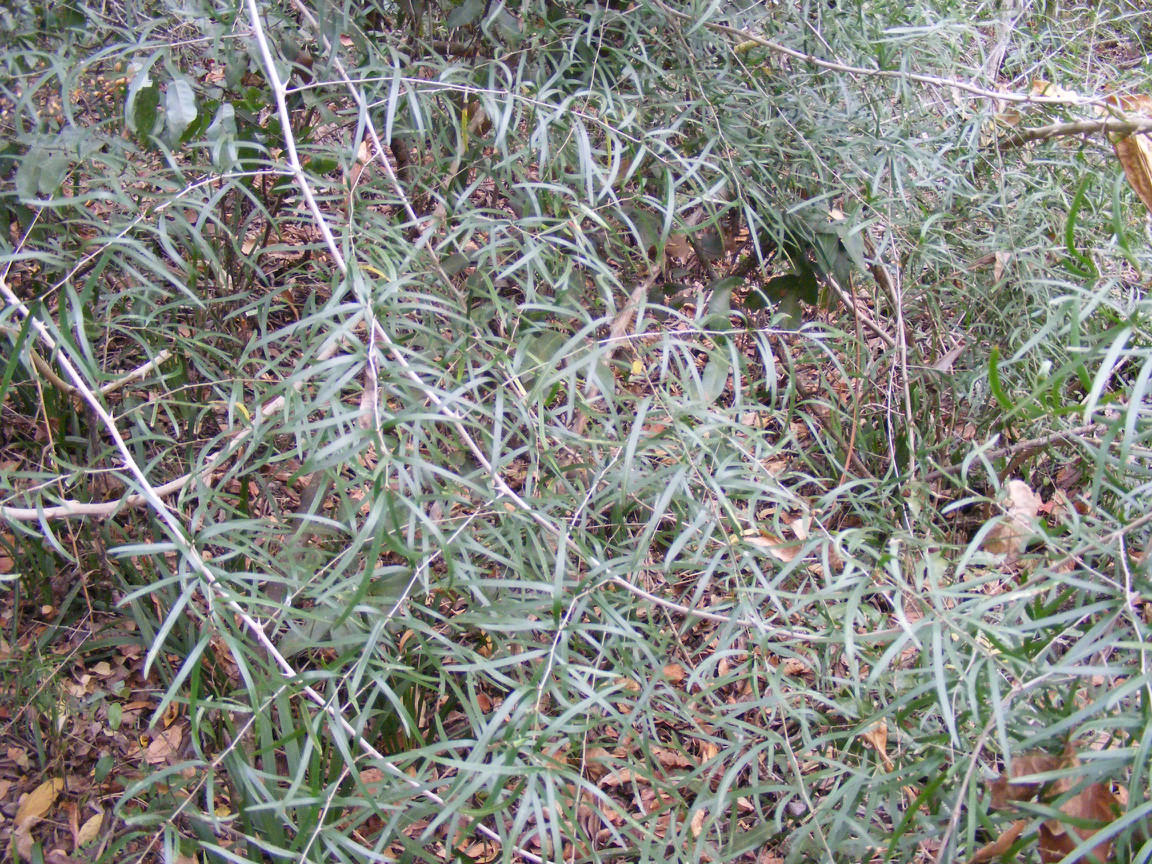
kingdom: Plantae
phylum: Tracheophyta
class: Liliopsida
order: Asparagales
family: Asparagaceae
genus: Asparagus
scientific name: Asparagus falcatus
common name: Asparagus
